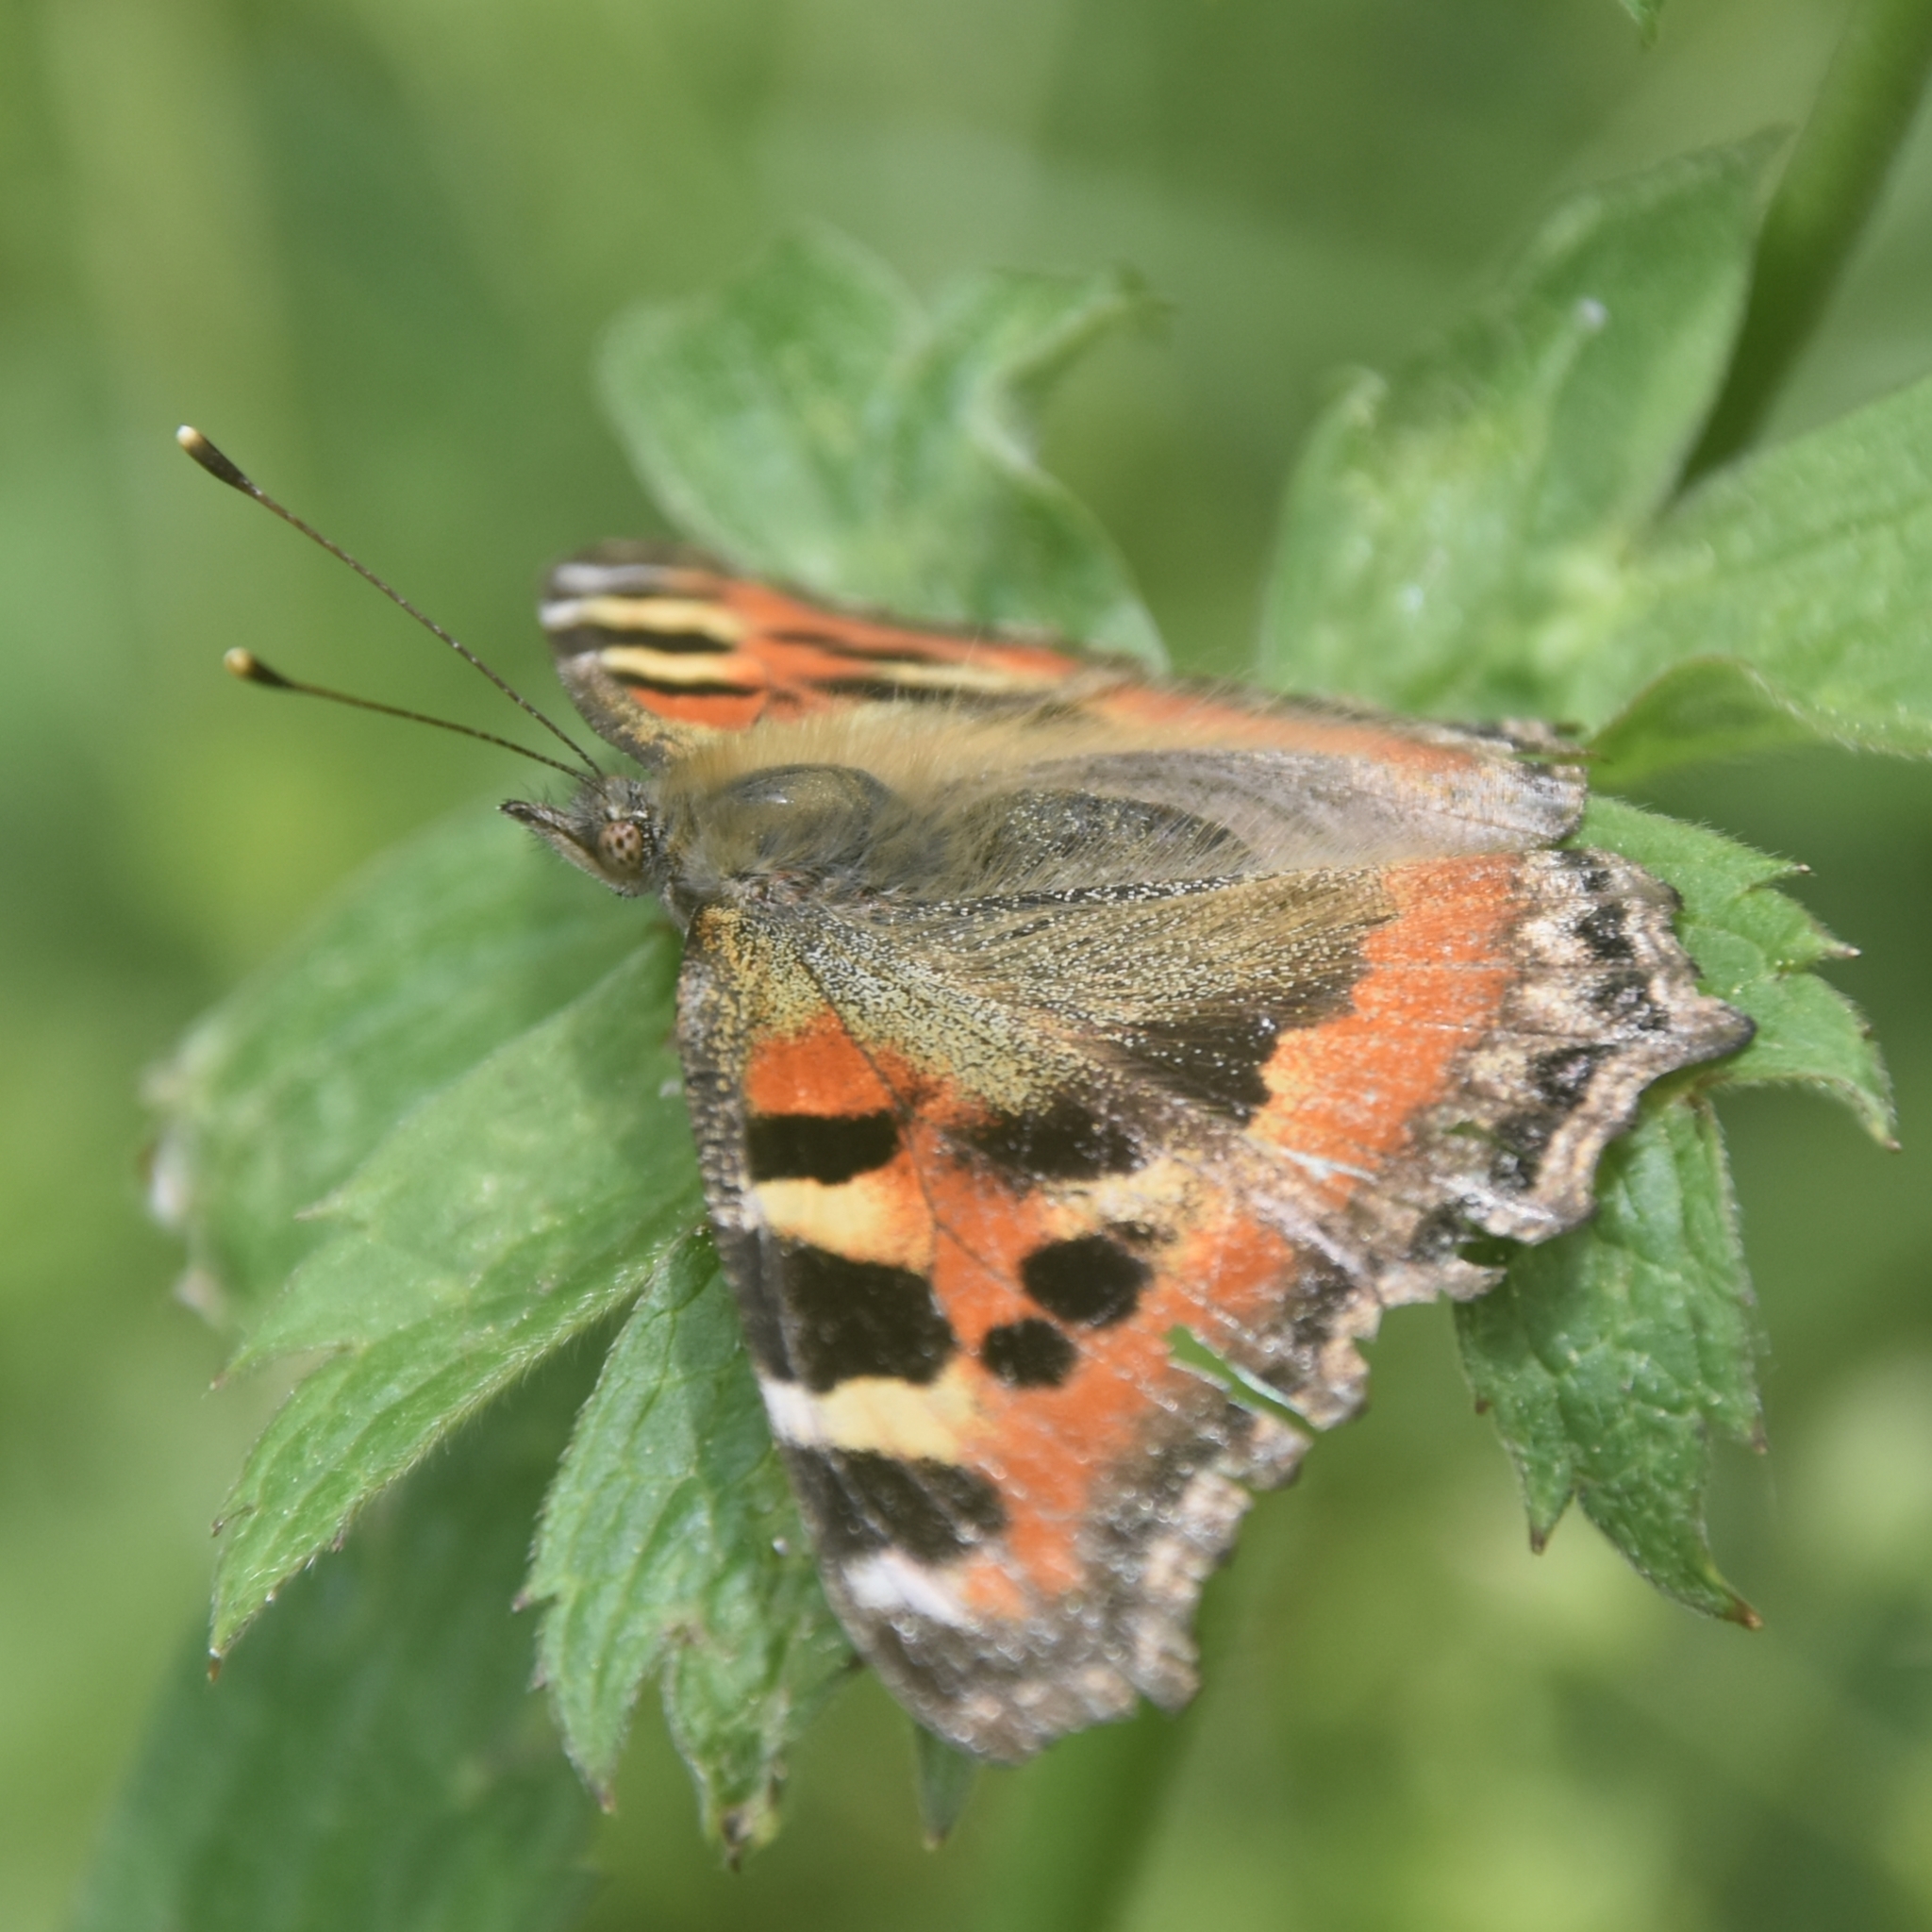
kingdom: Animalia
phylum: Arthropoda
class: Insecta
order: Lepidoptera
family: Nymphalidae
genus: Aglais
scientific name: Aglais caschmirensis
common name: Indian tortoiseshell
